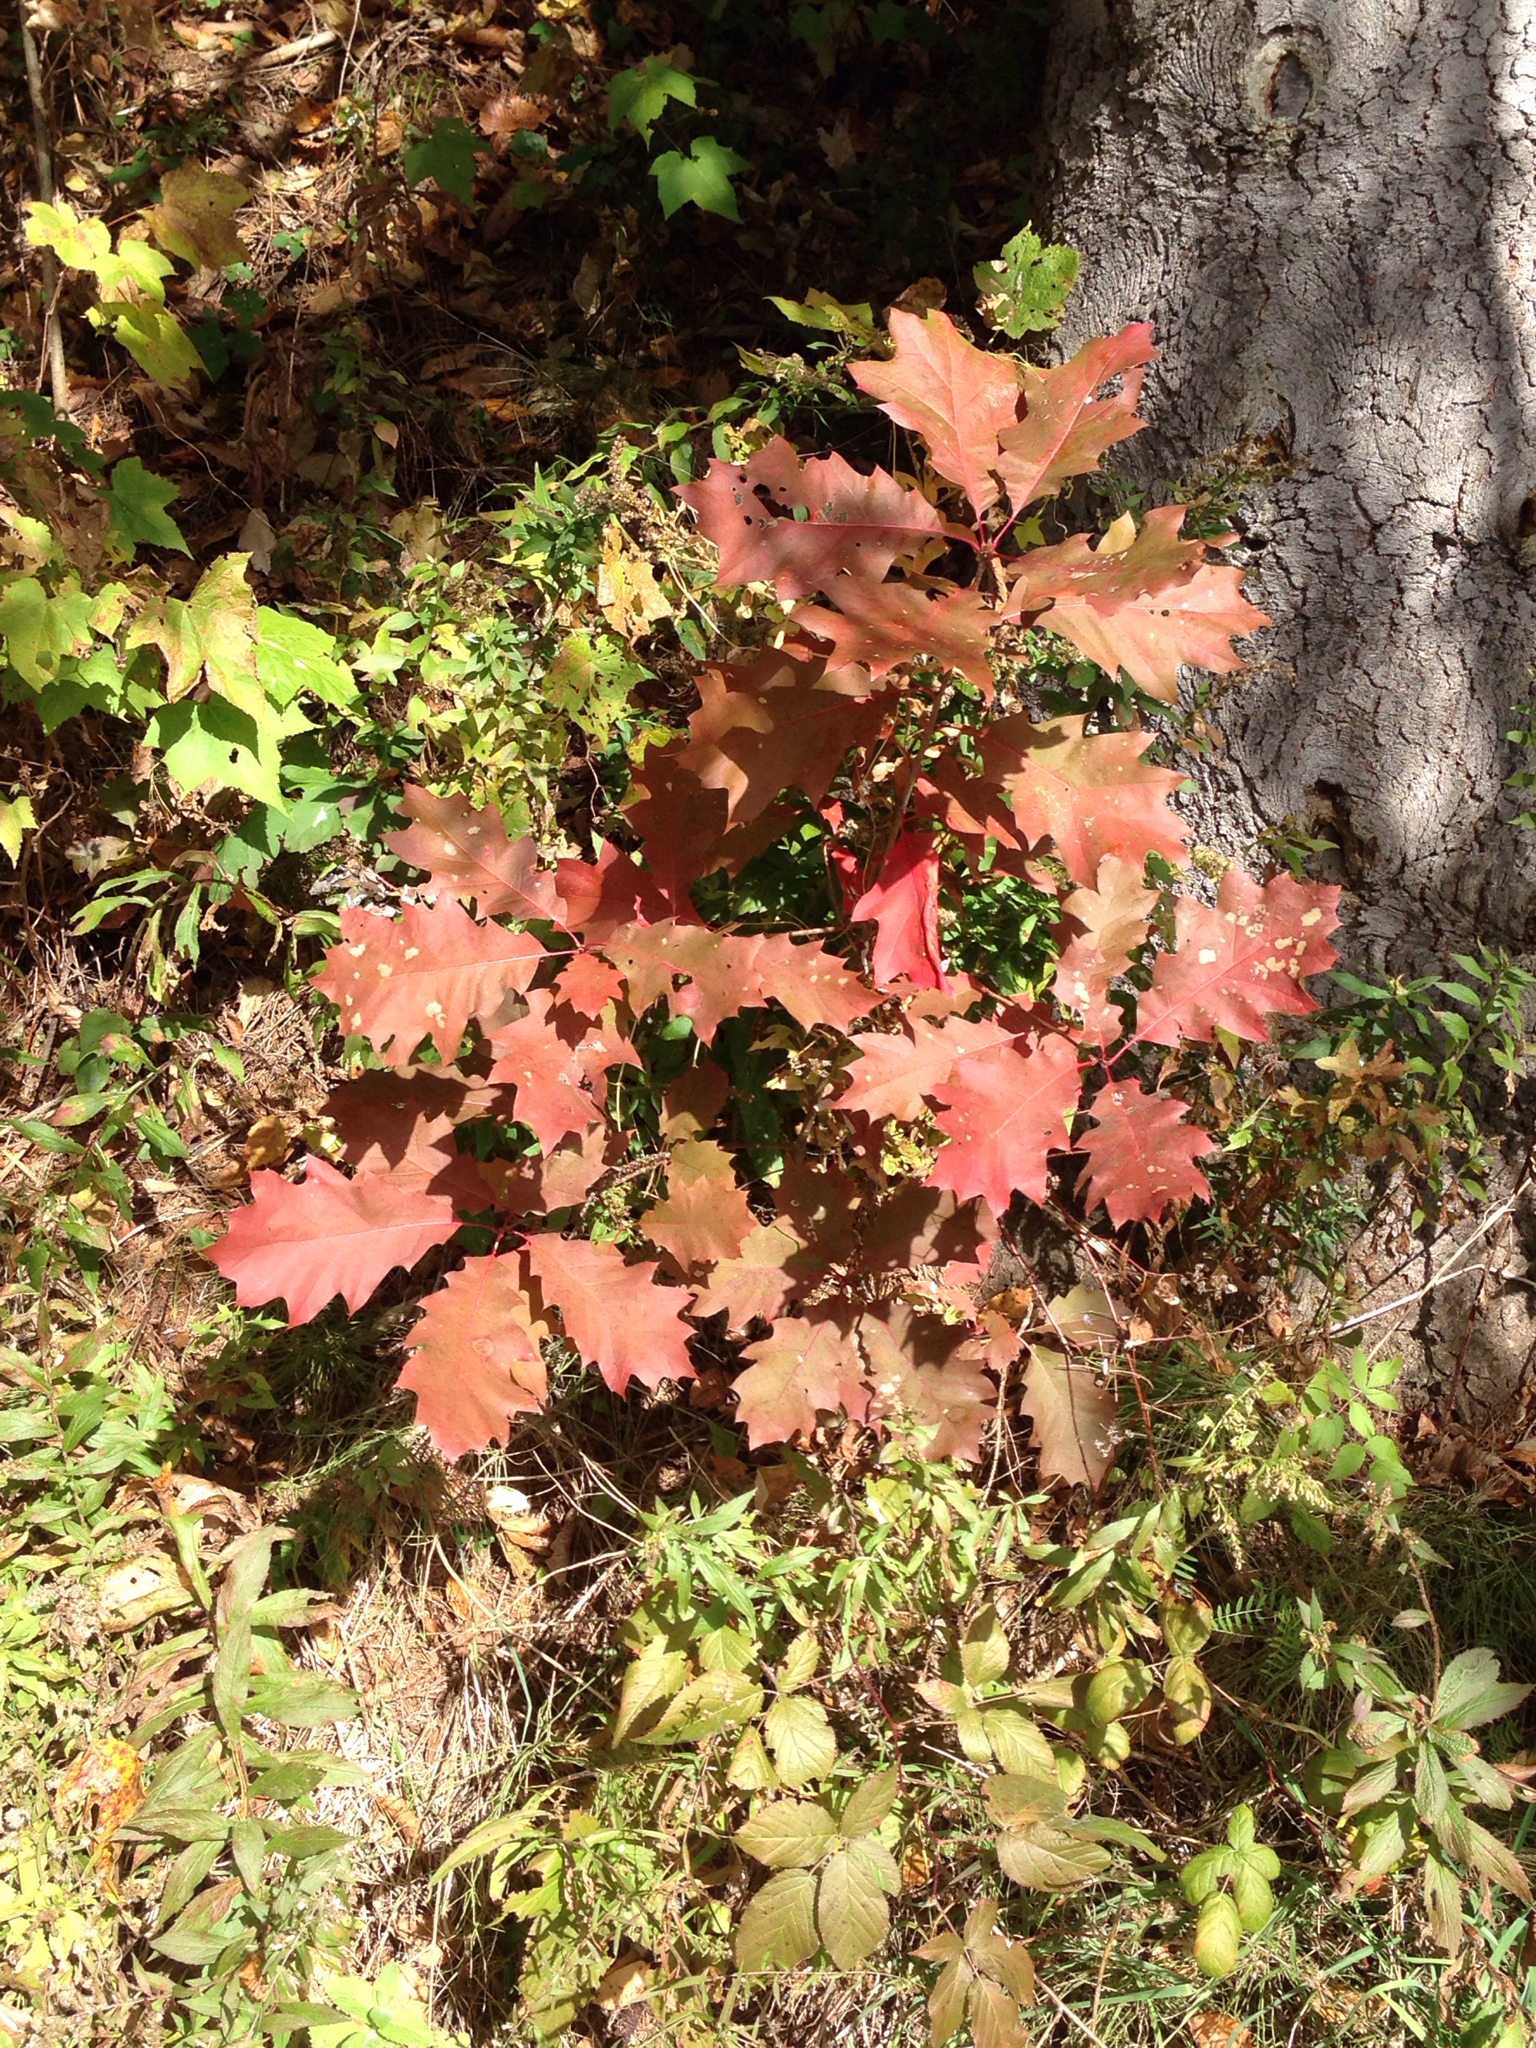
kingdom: Plantae
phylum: Tracheophyta
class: Magnoliopsida
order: Fagales
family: Fagaceae
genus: Quercus
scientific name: Quercus rubra
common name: Red oak
